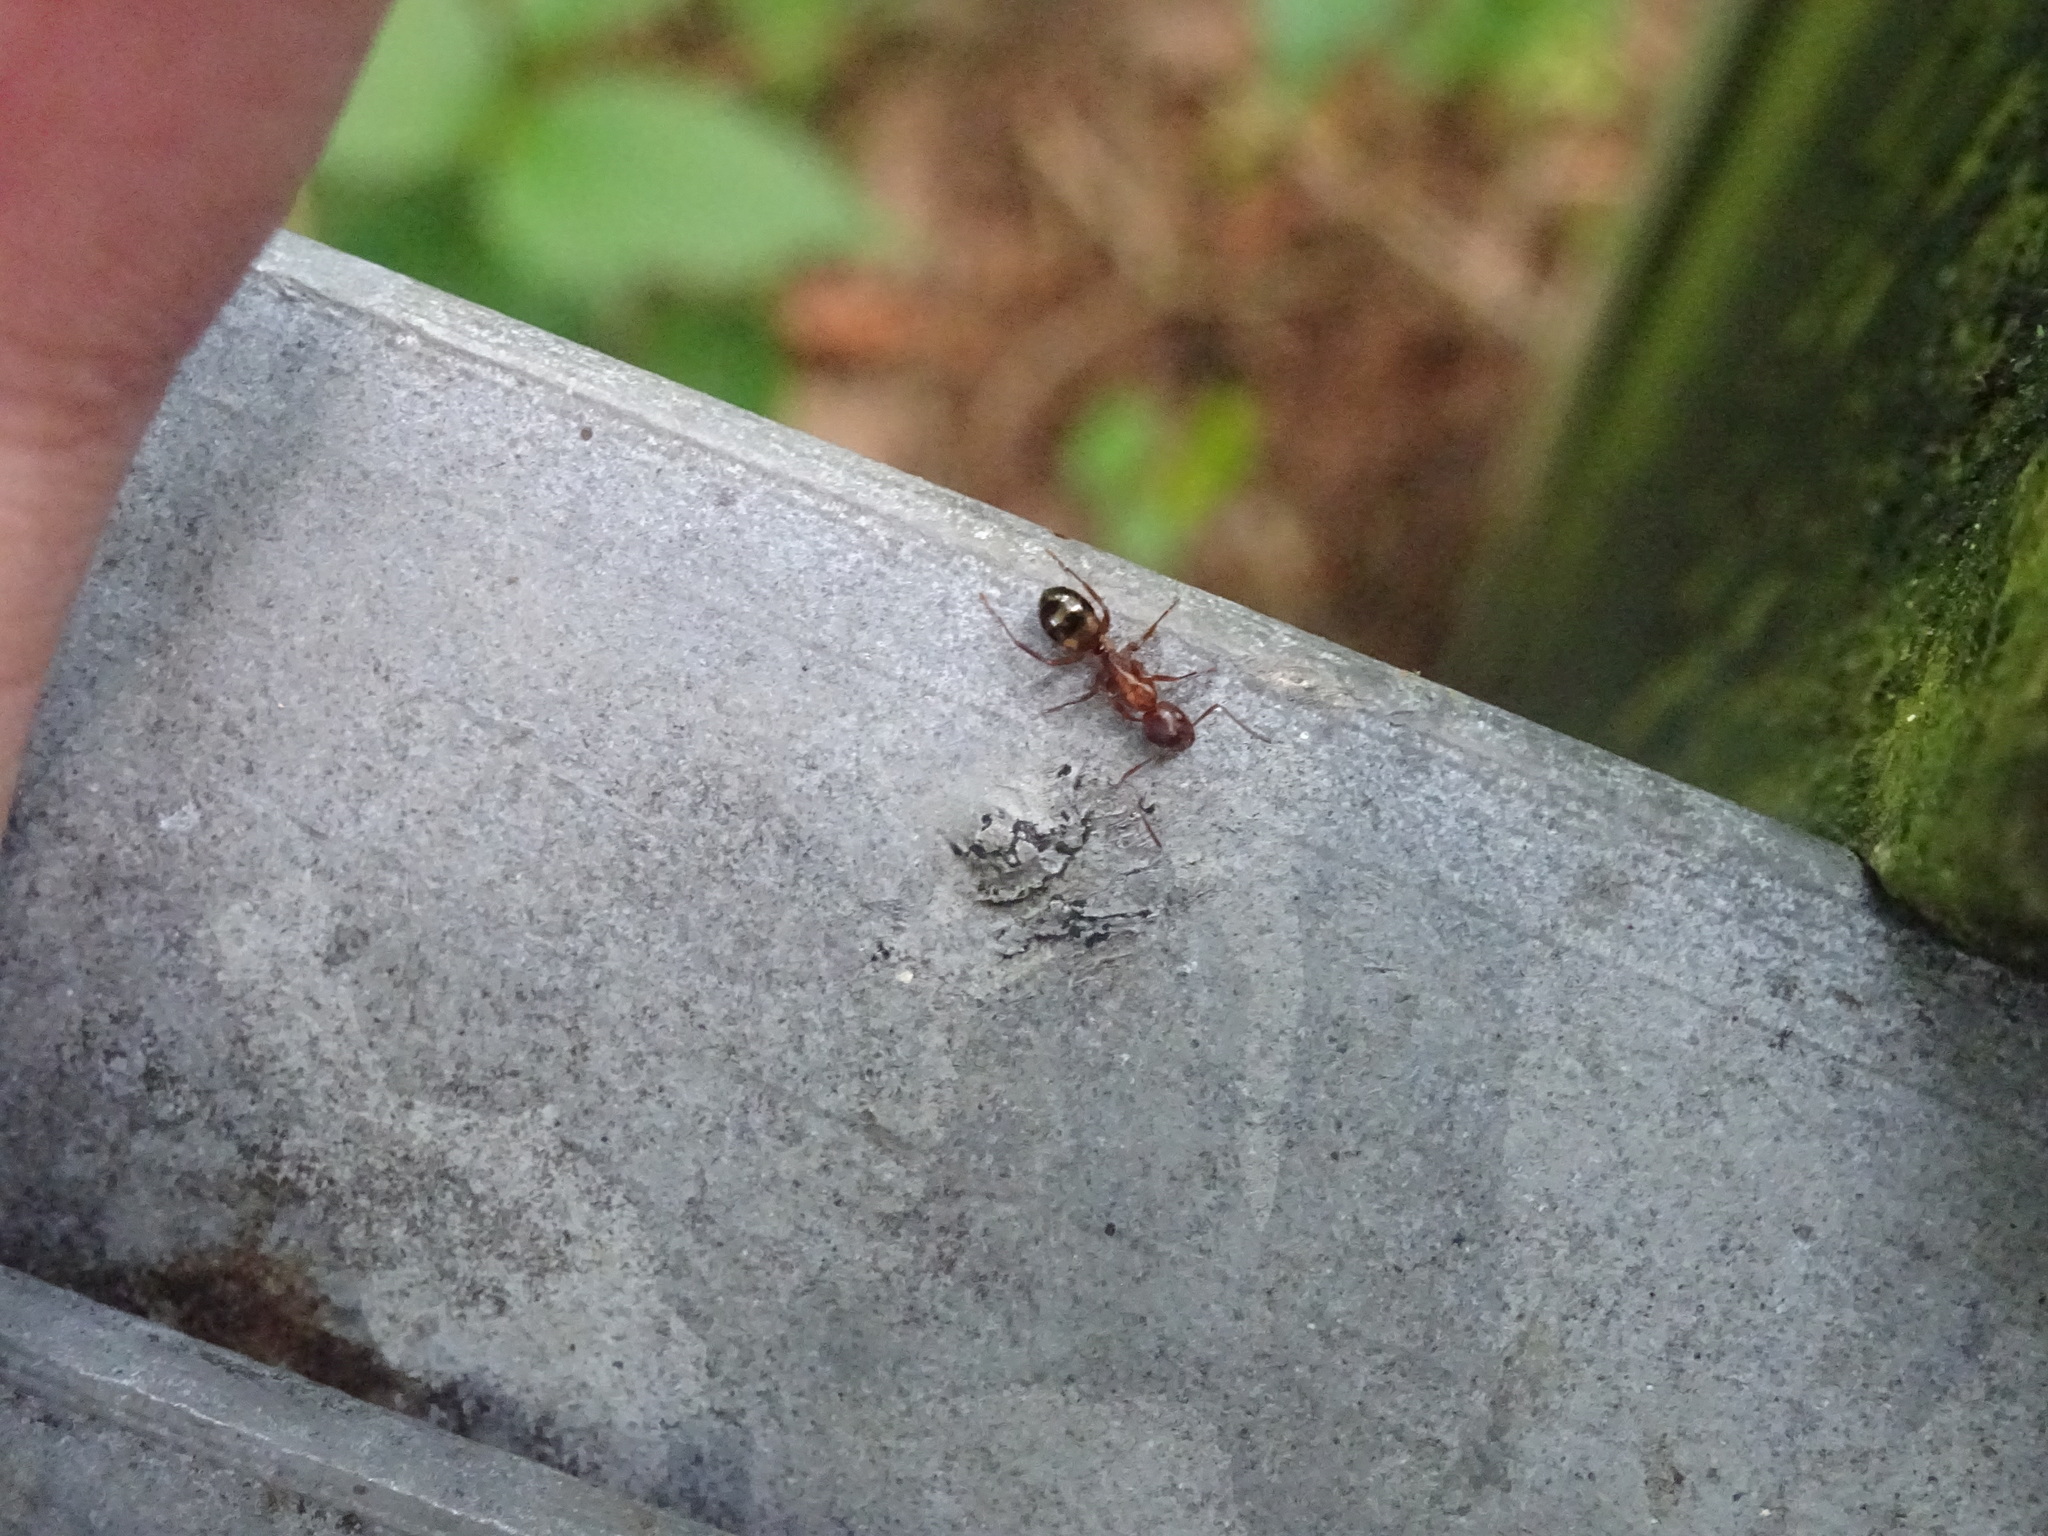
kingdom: Animalia
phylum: Arthropoda
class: Insecta
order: Hymenoptera
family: Formicidae
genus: Camponotus
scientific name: Camponotus subbarbatus
